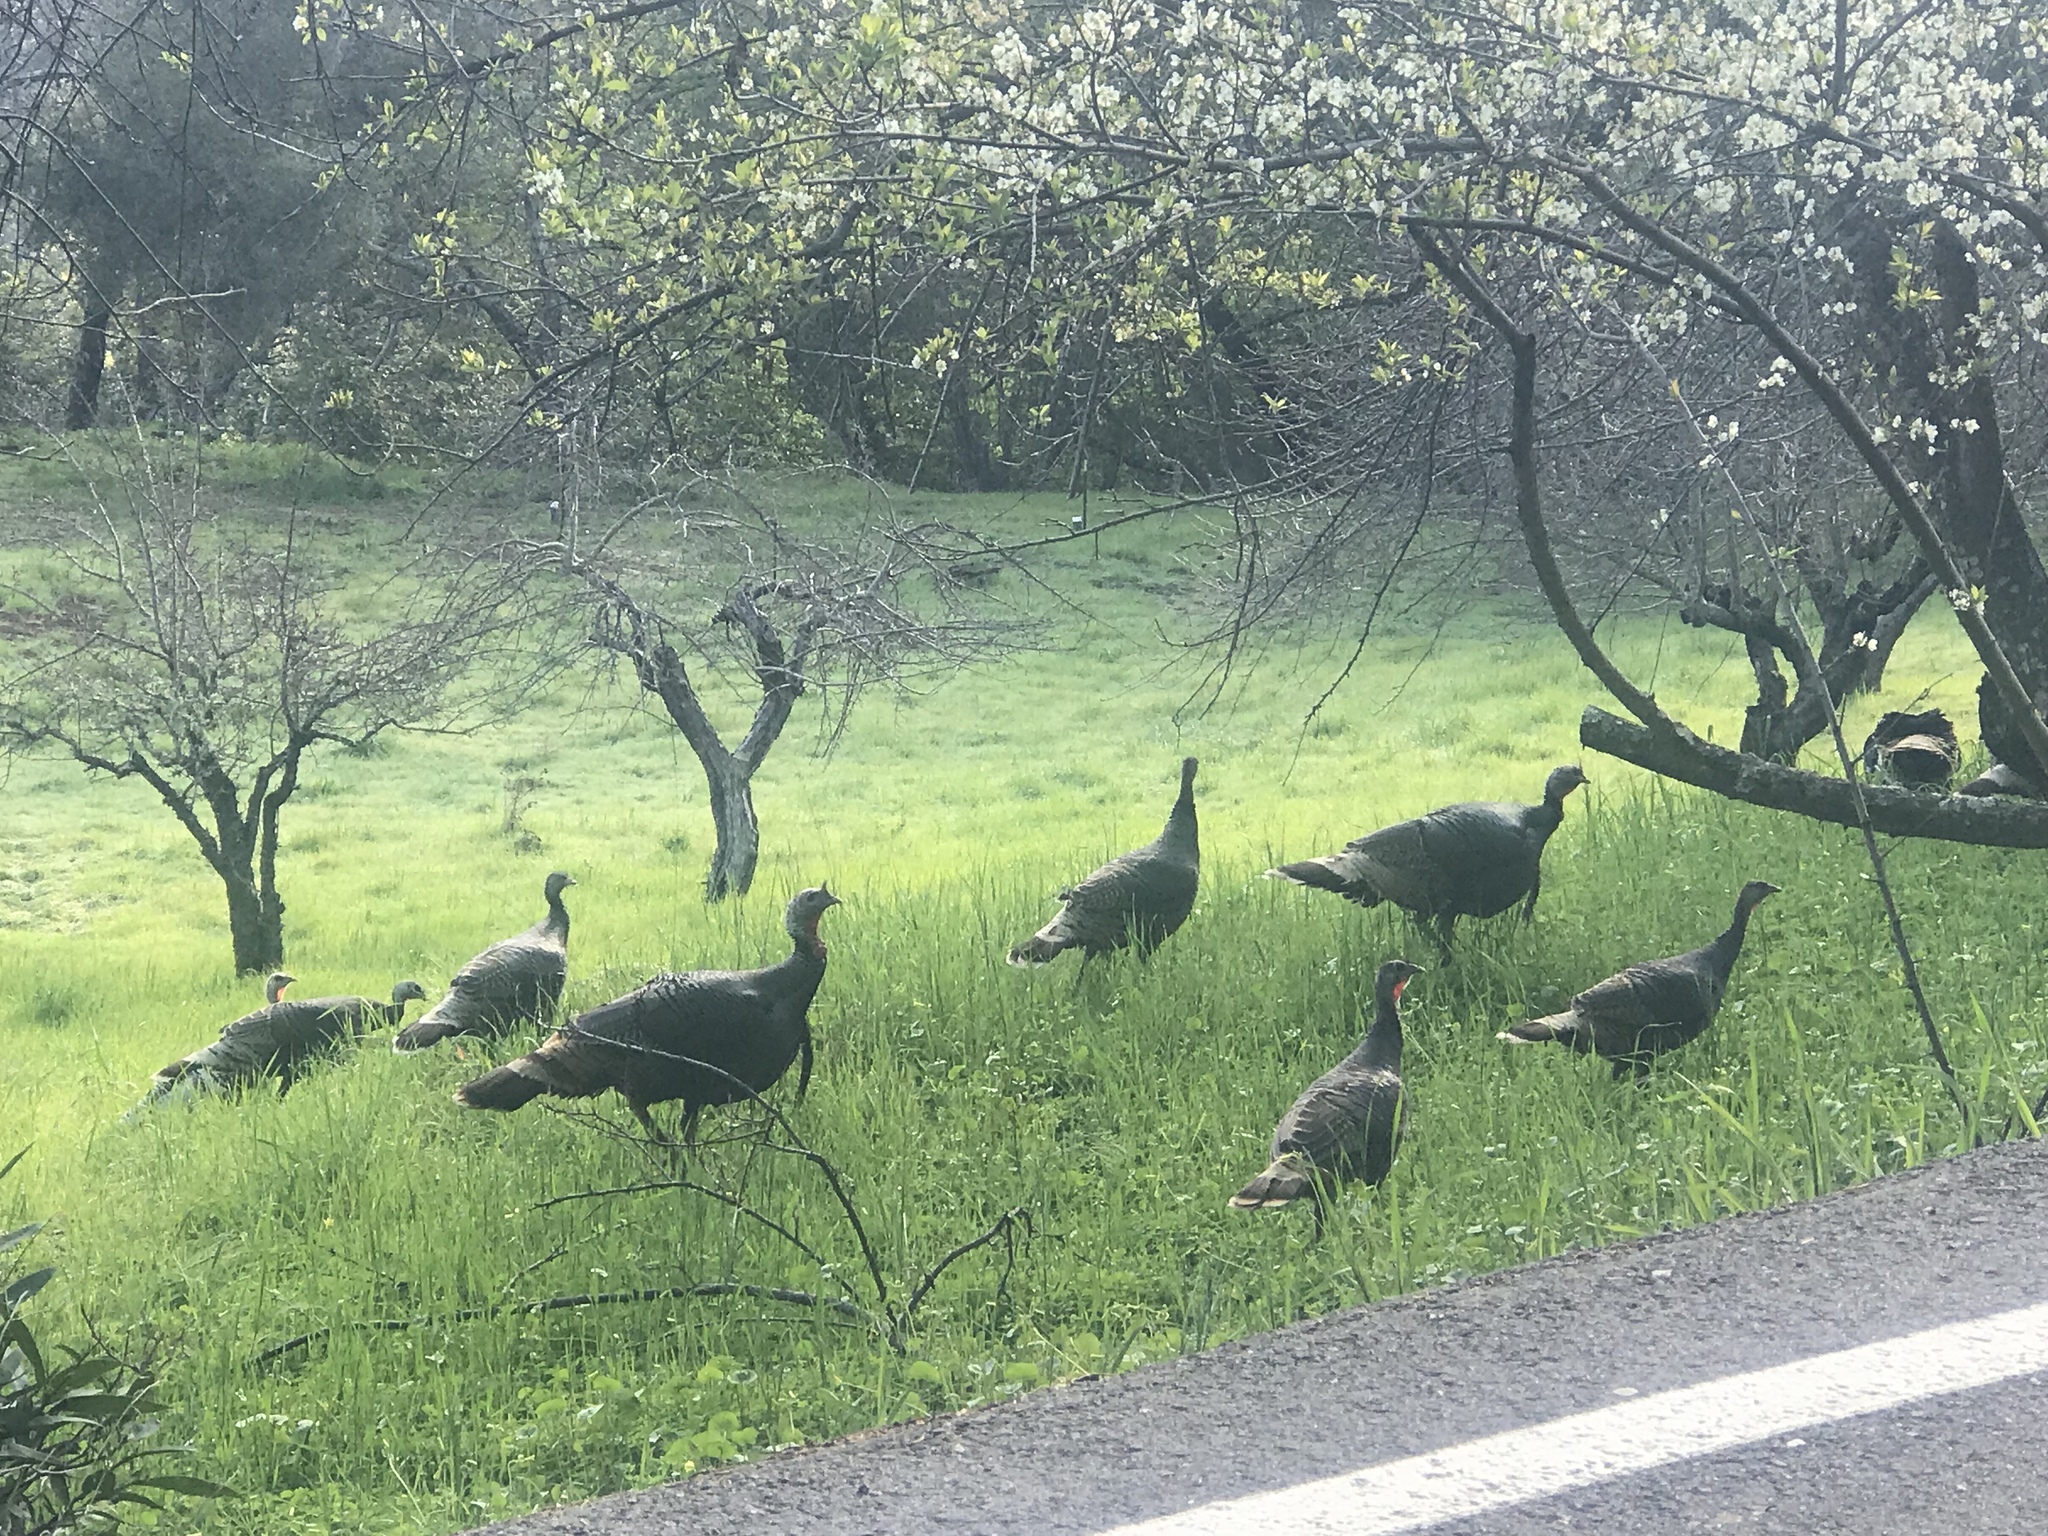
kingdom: Animalia
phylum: Chordata
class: Aves
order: Galliformes
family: Phasianidae
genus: Meleagris
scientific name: Meleagris gallopavo
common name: Wild turkey
